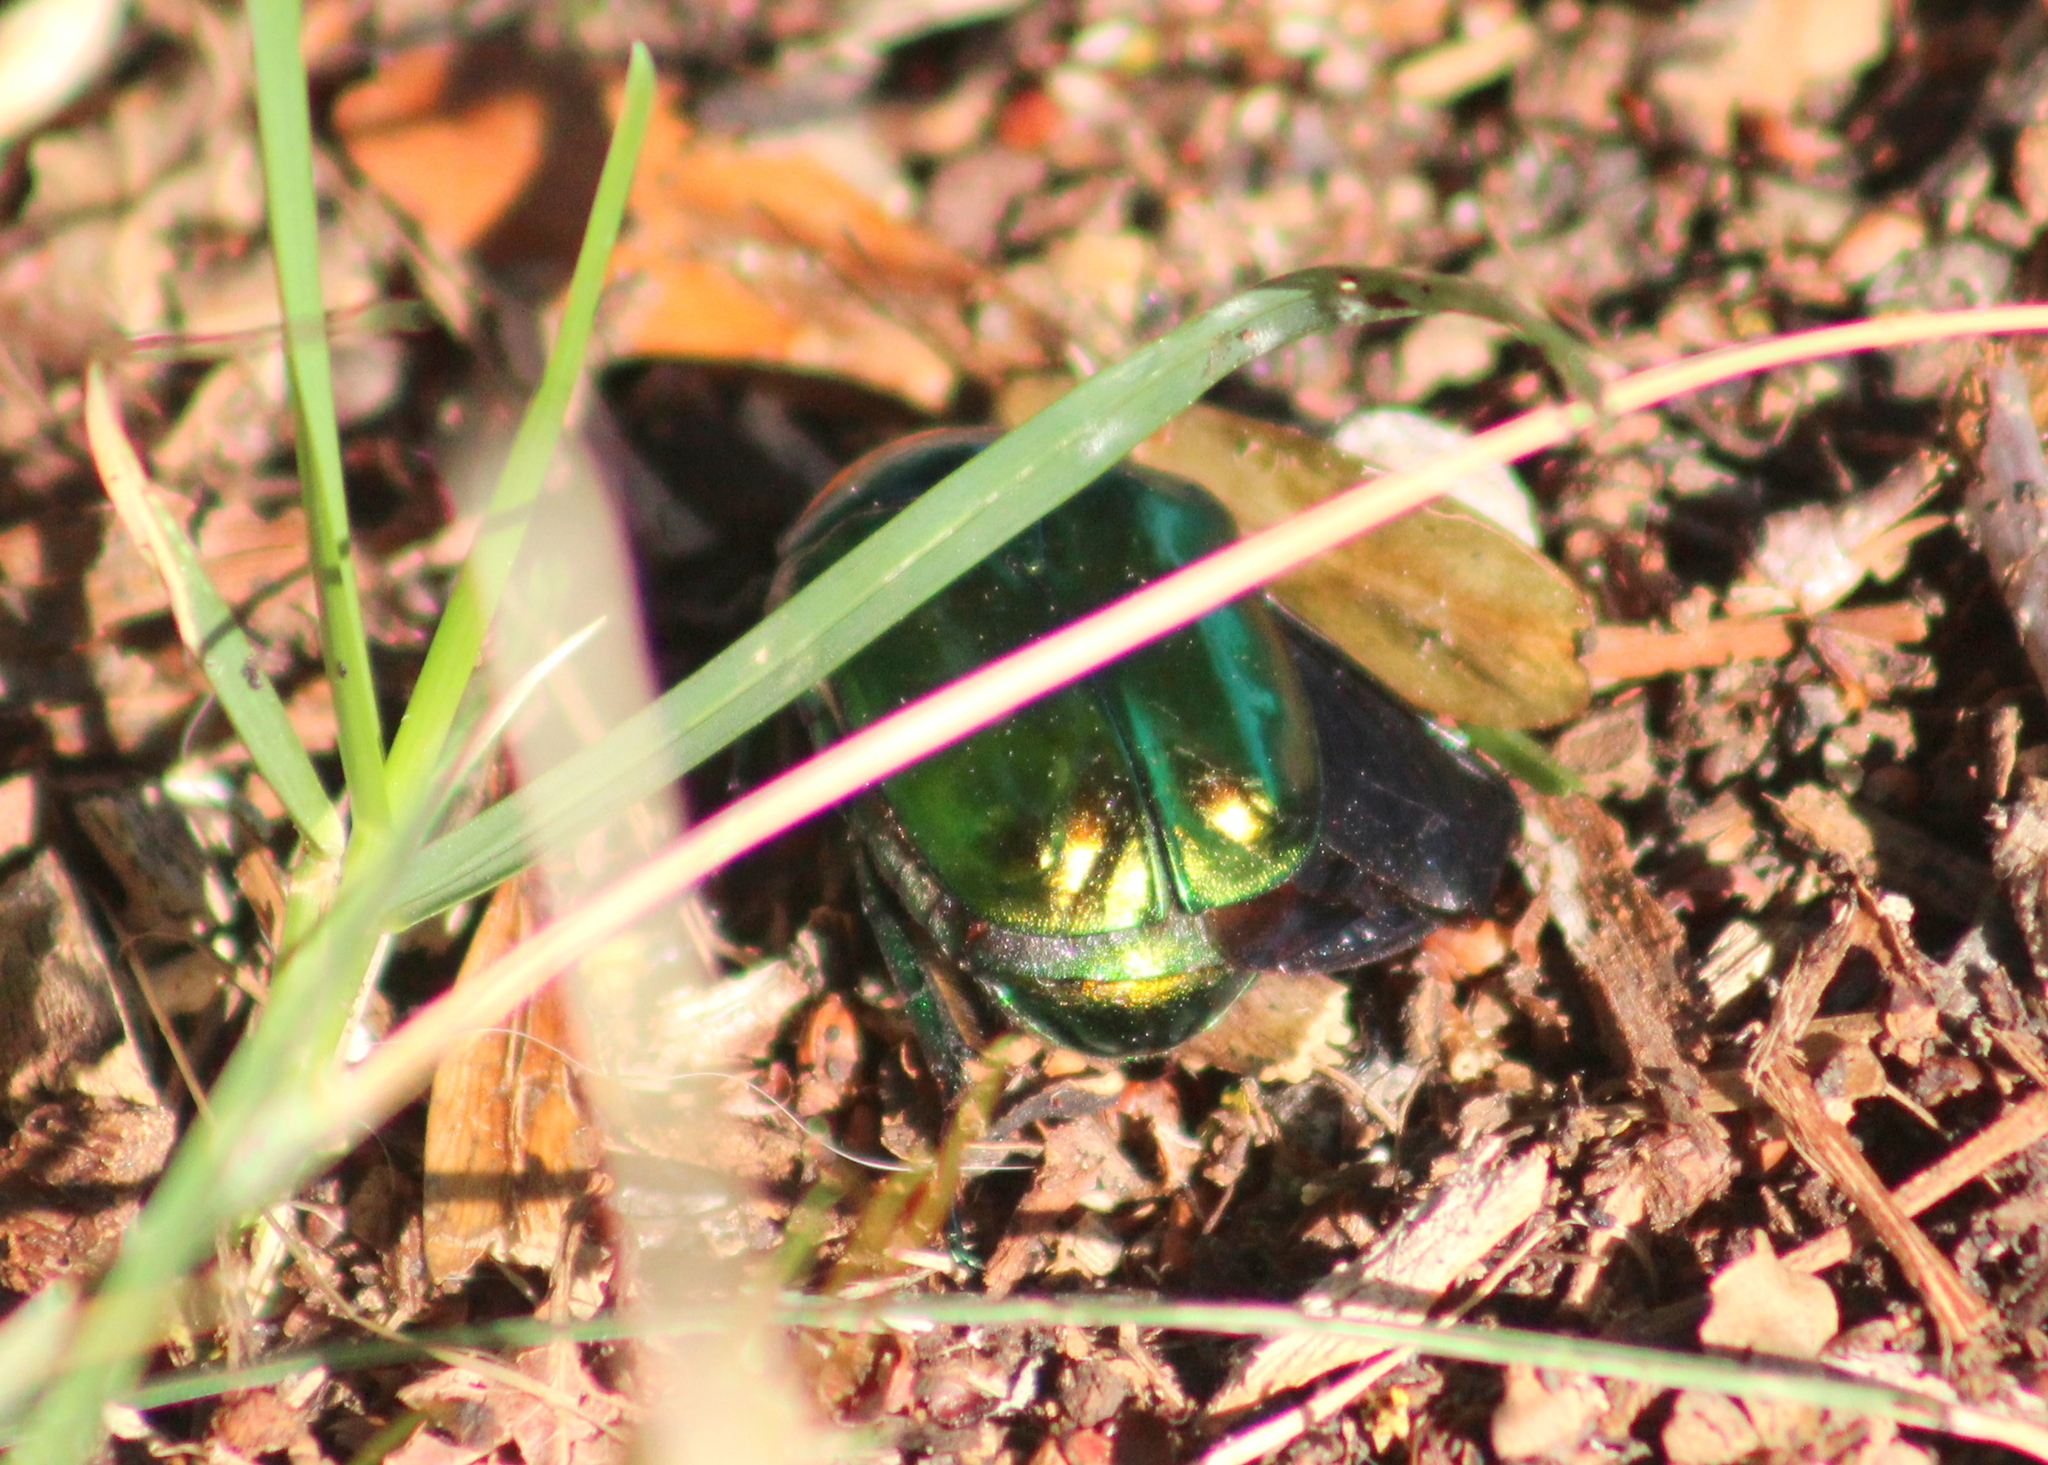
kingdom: Animalia
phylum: Arthropoda
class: Insecta
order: Coleoptera
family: Scarabaeidae
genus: Protaetia
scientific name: Protaetia speciosissima
